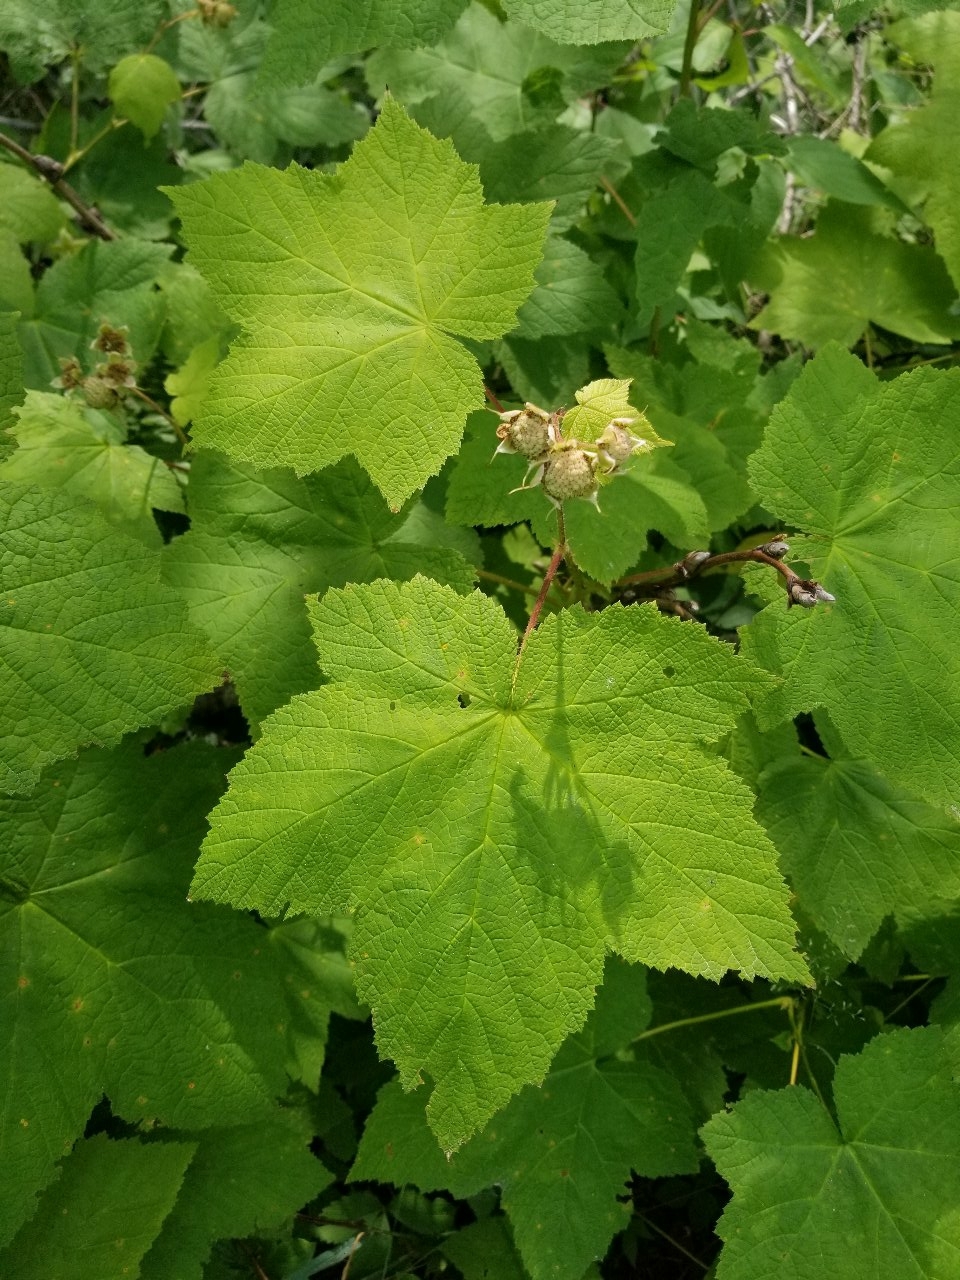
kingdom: Plantae
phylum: Tracheophyta
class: Magnoliopsida
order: Rosales
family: Rosaceae
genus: Rubus
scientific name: Rubus parviflorus
